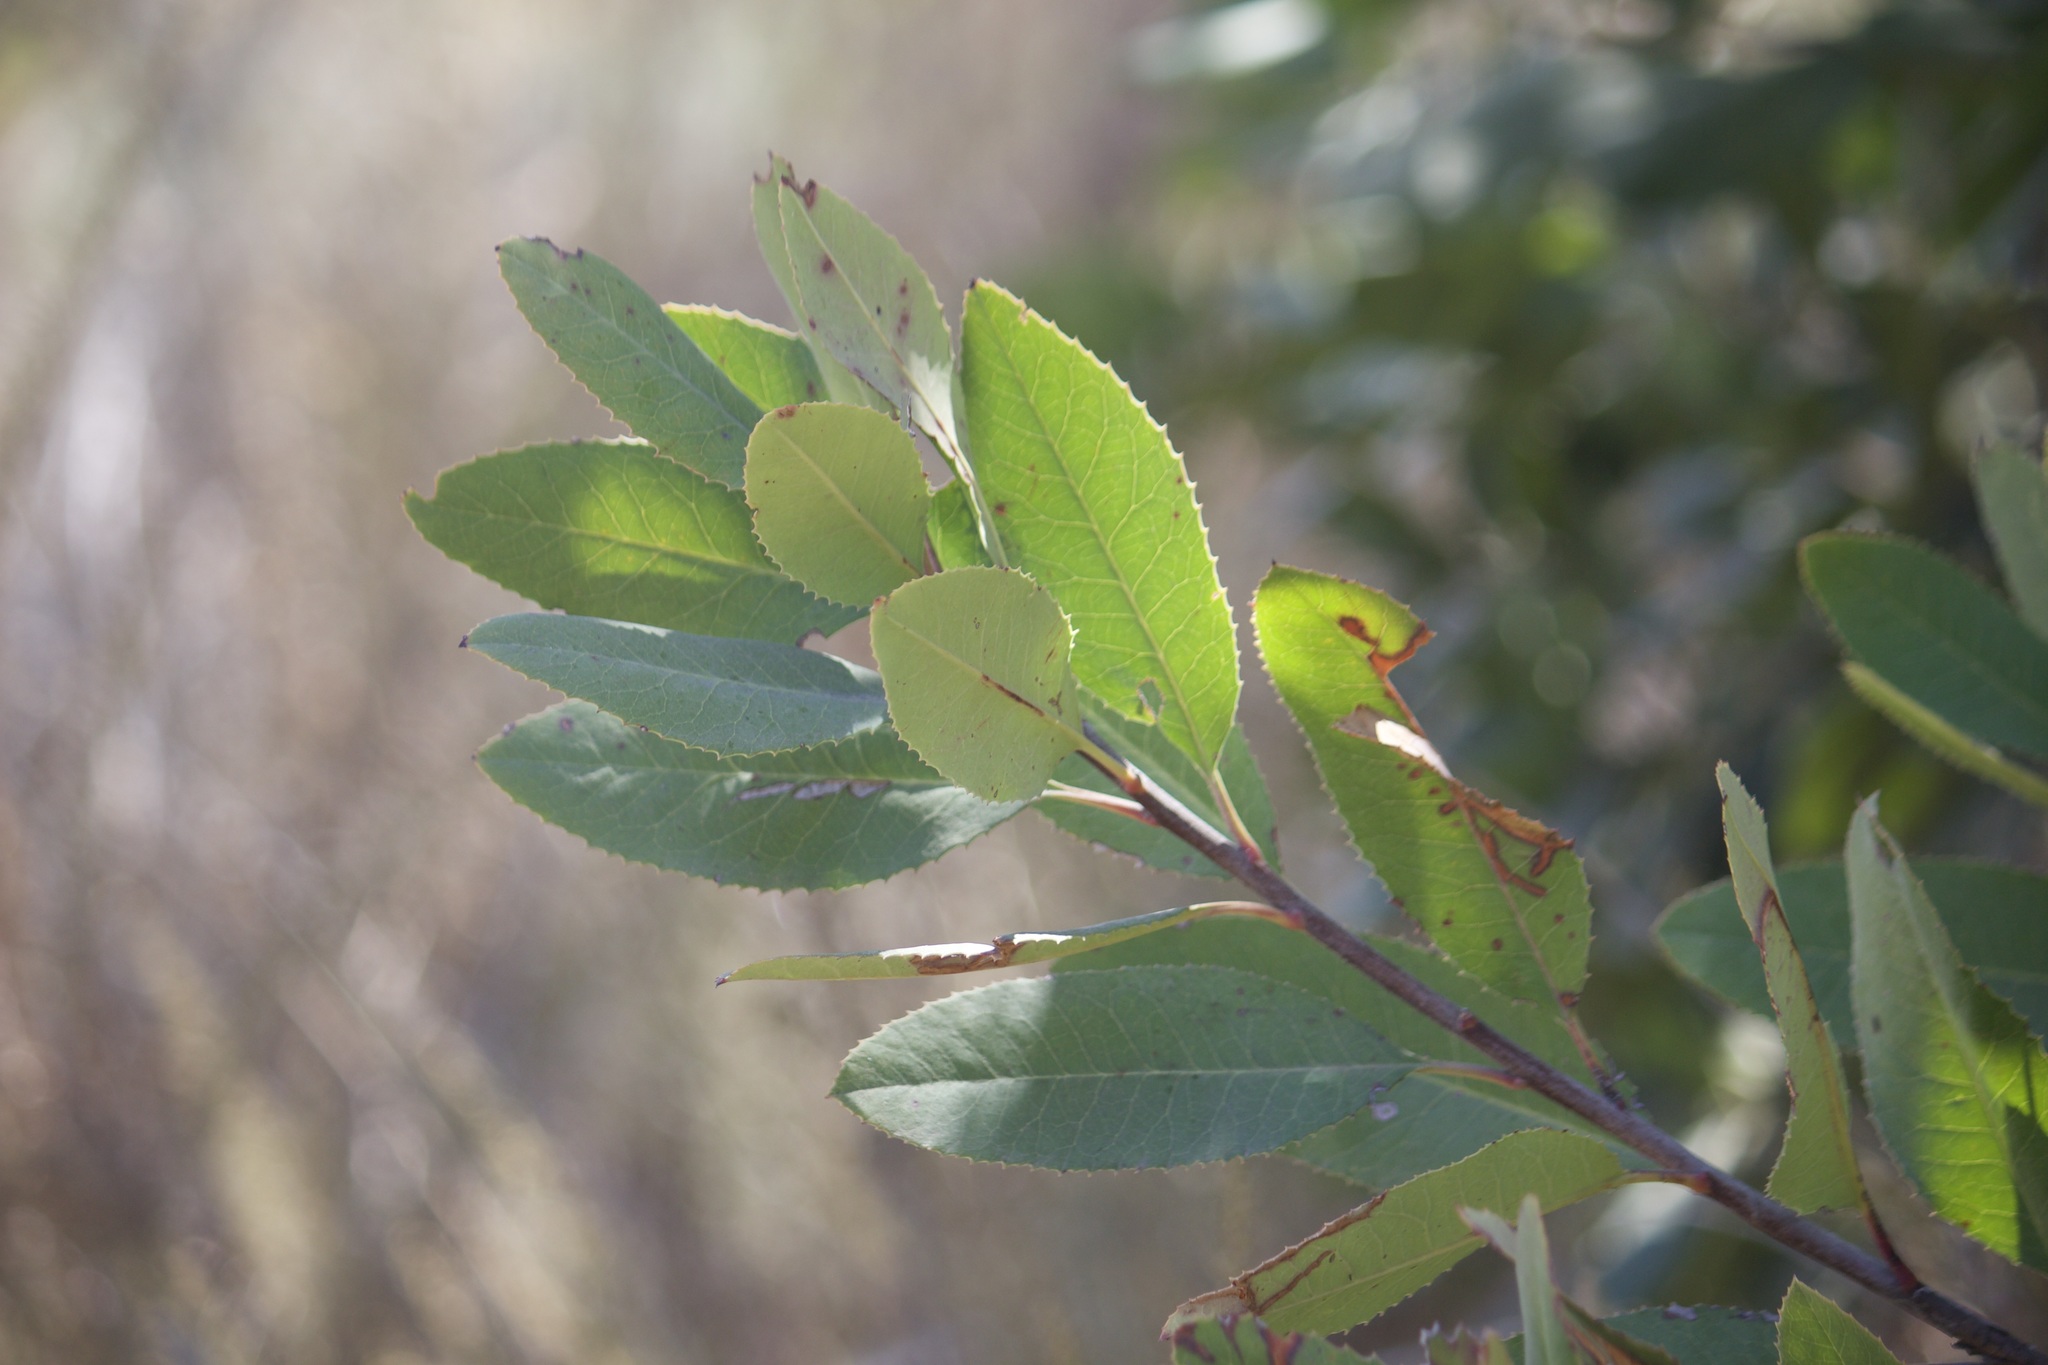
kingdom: Plantae
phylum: Tracheophyta
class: Magnoliopsida
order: Rosales
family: Rosaceae
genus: Heteromeles
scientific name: Heteromeles arbutifolia
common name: California-holly
